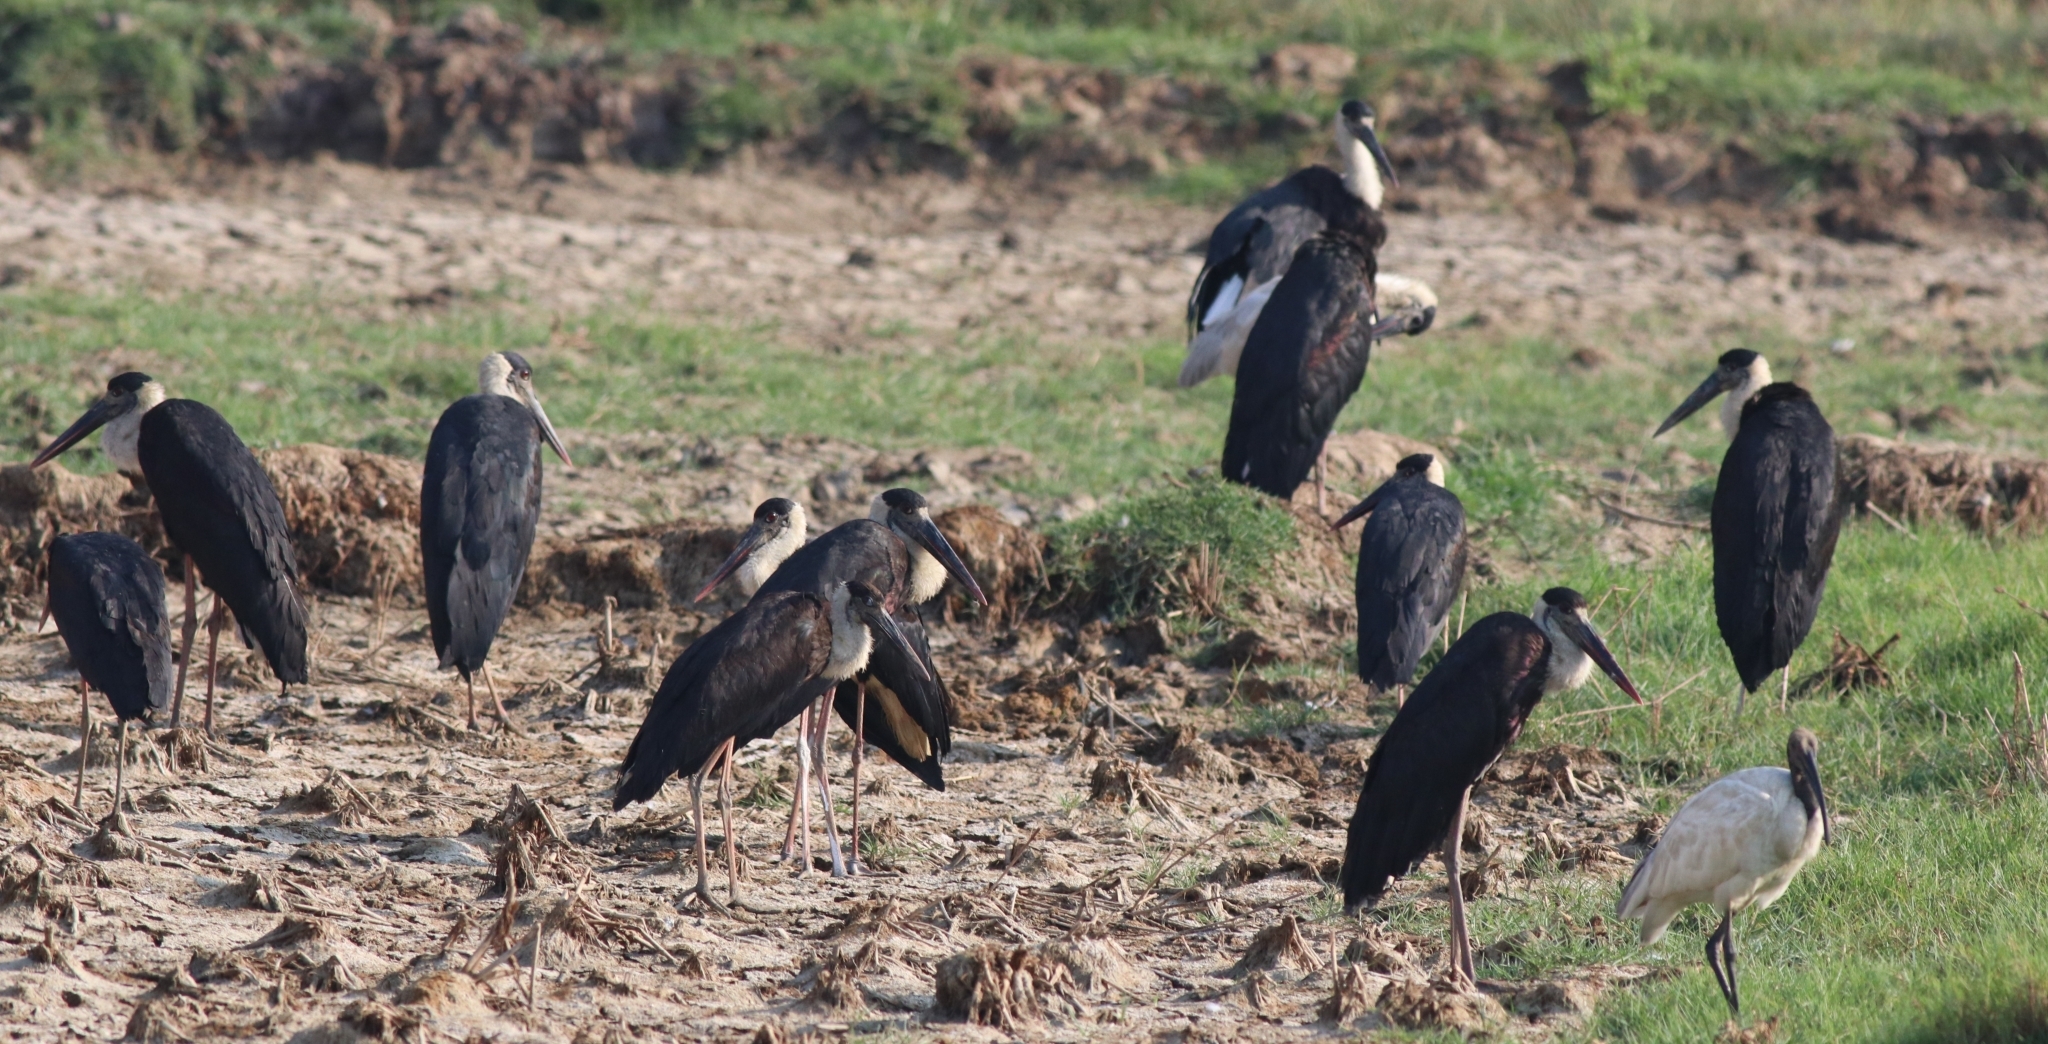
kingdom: Animalia
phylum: Chordata
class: Aves
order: Ciconiiformes
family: Ciconiidae
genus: Ciconia
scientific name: Ciconia episcopus
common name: Woolly-necked stork
